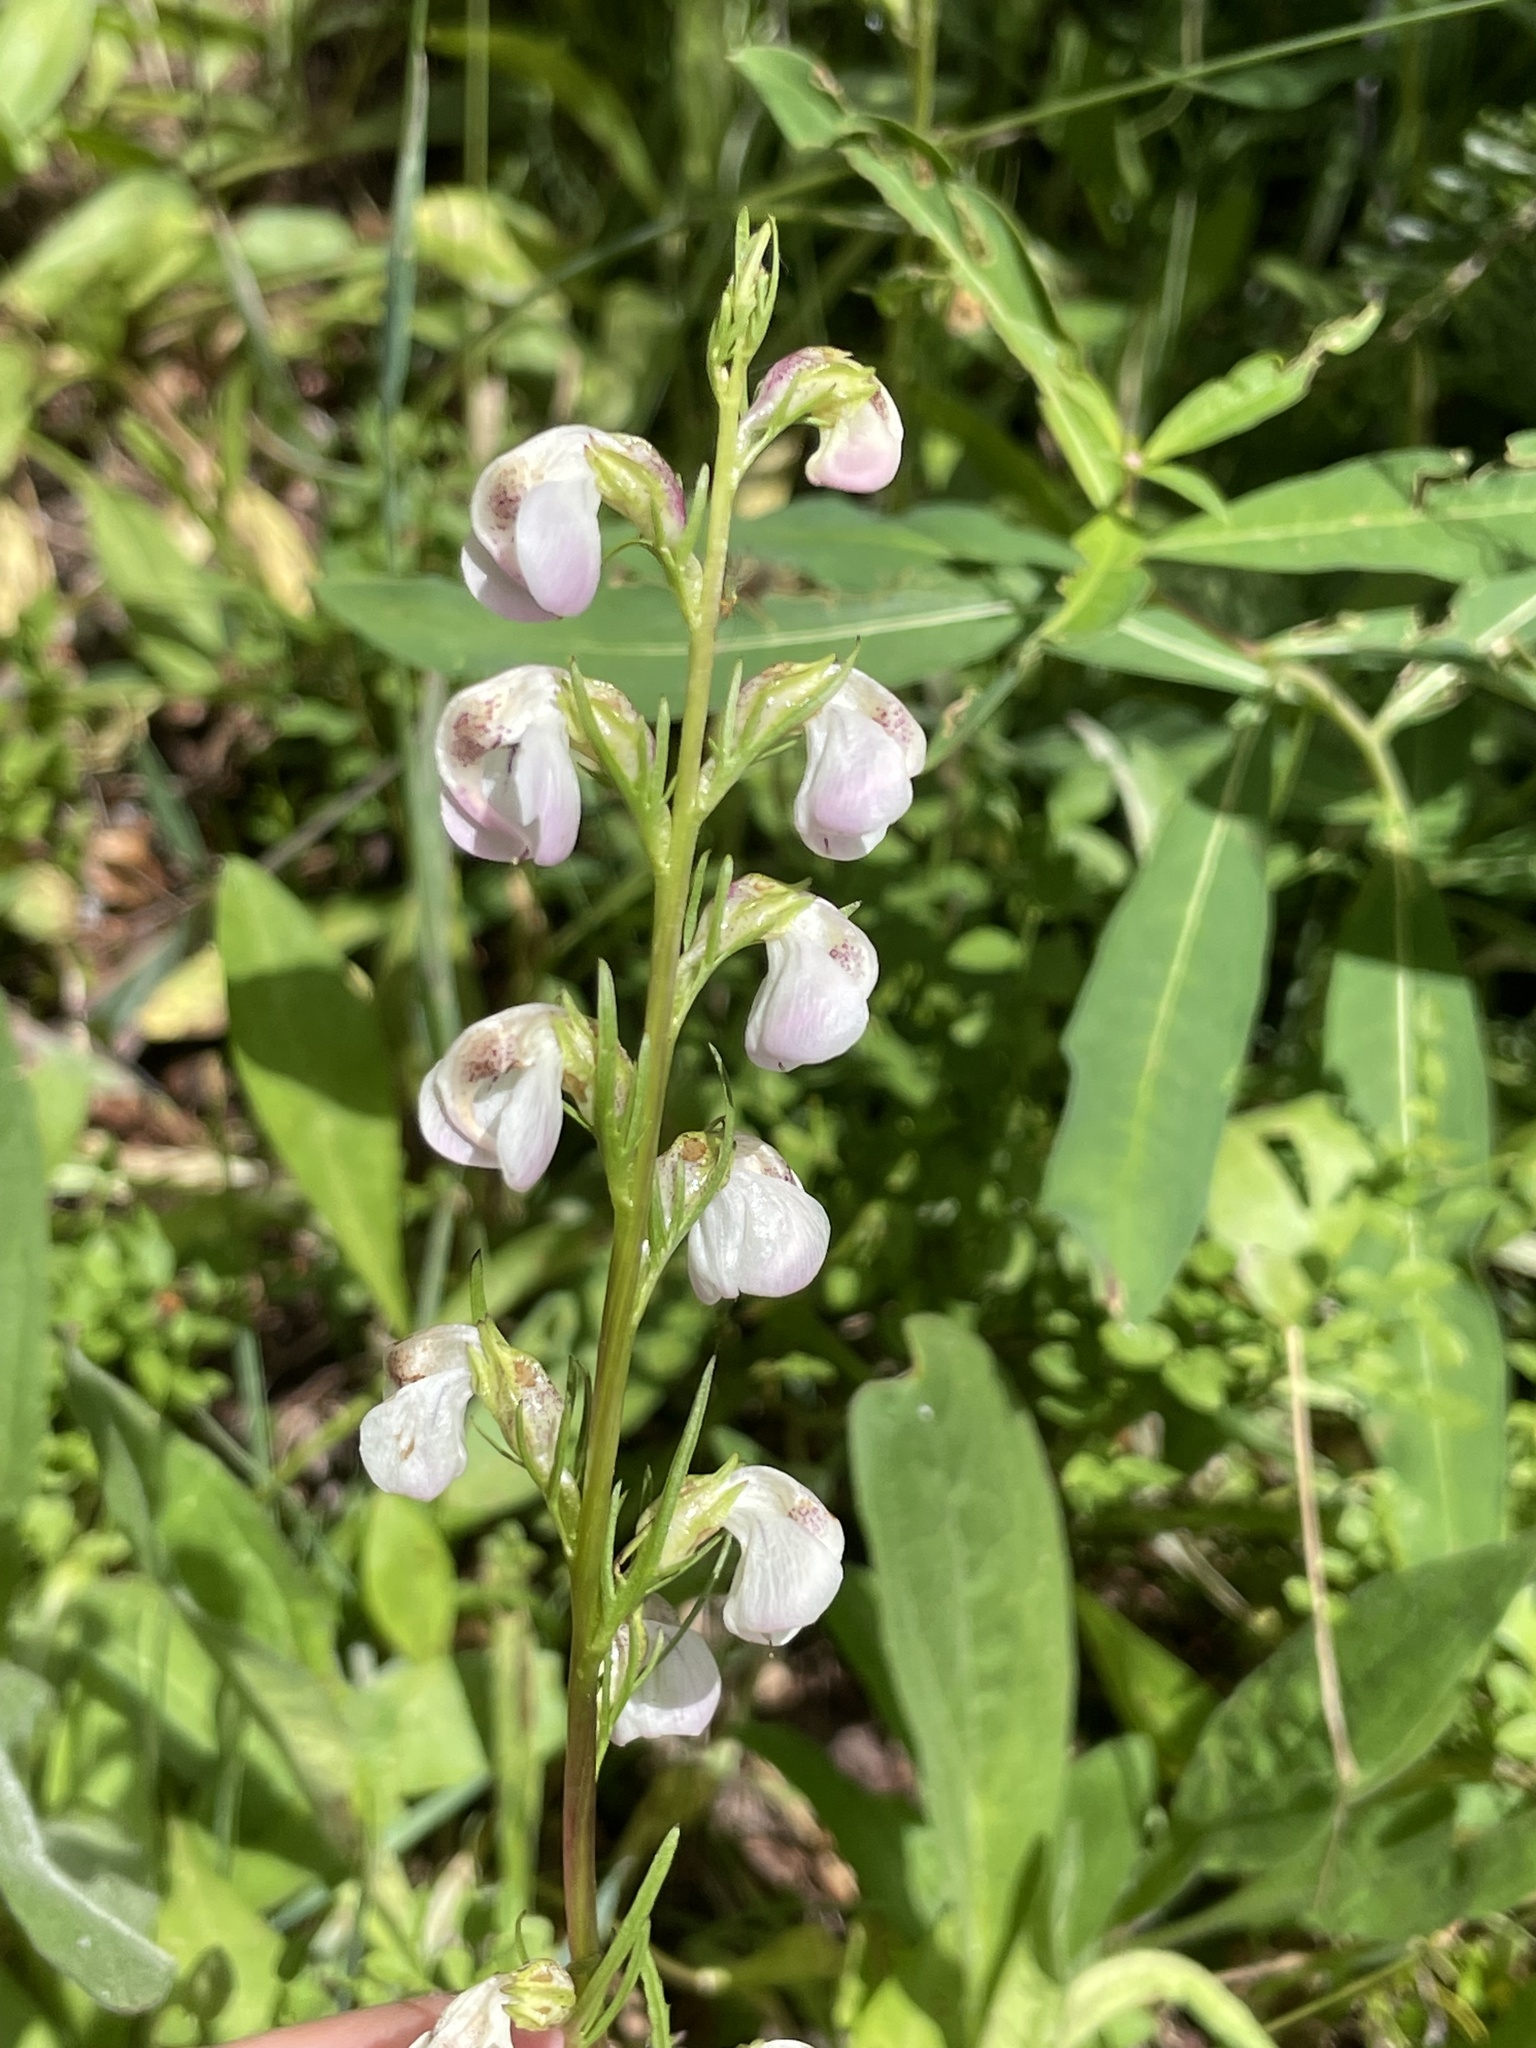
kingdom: Plantae
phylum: Tracheophyta
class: Magnoliopsida
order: Lamiales
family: Orobanchaceae
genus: Pedicularis
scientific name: Pedicularis contorta
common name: Coiled lousewort
